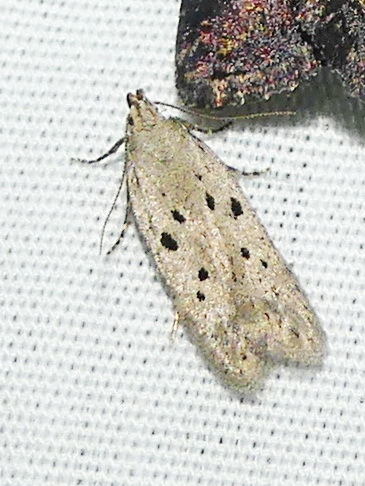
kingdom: Animalia
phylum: Arthropoda
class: Insecta
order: Lepidoptera
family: Gelechiidae
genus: Athrips
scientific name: Athrips mouffetella
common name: Dotted grey groundling
